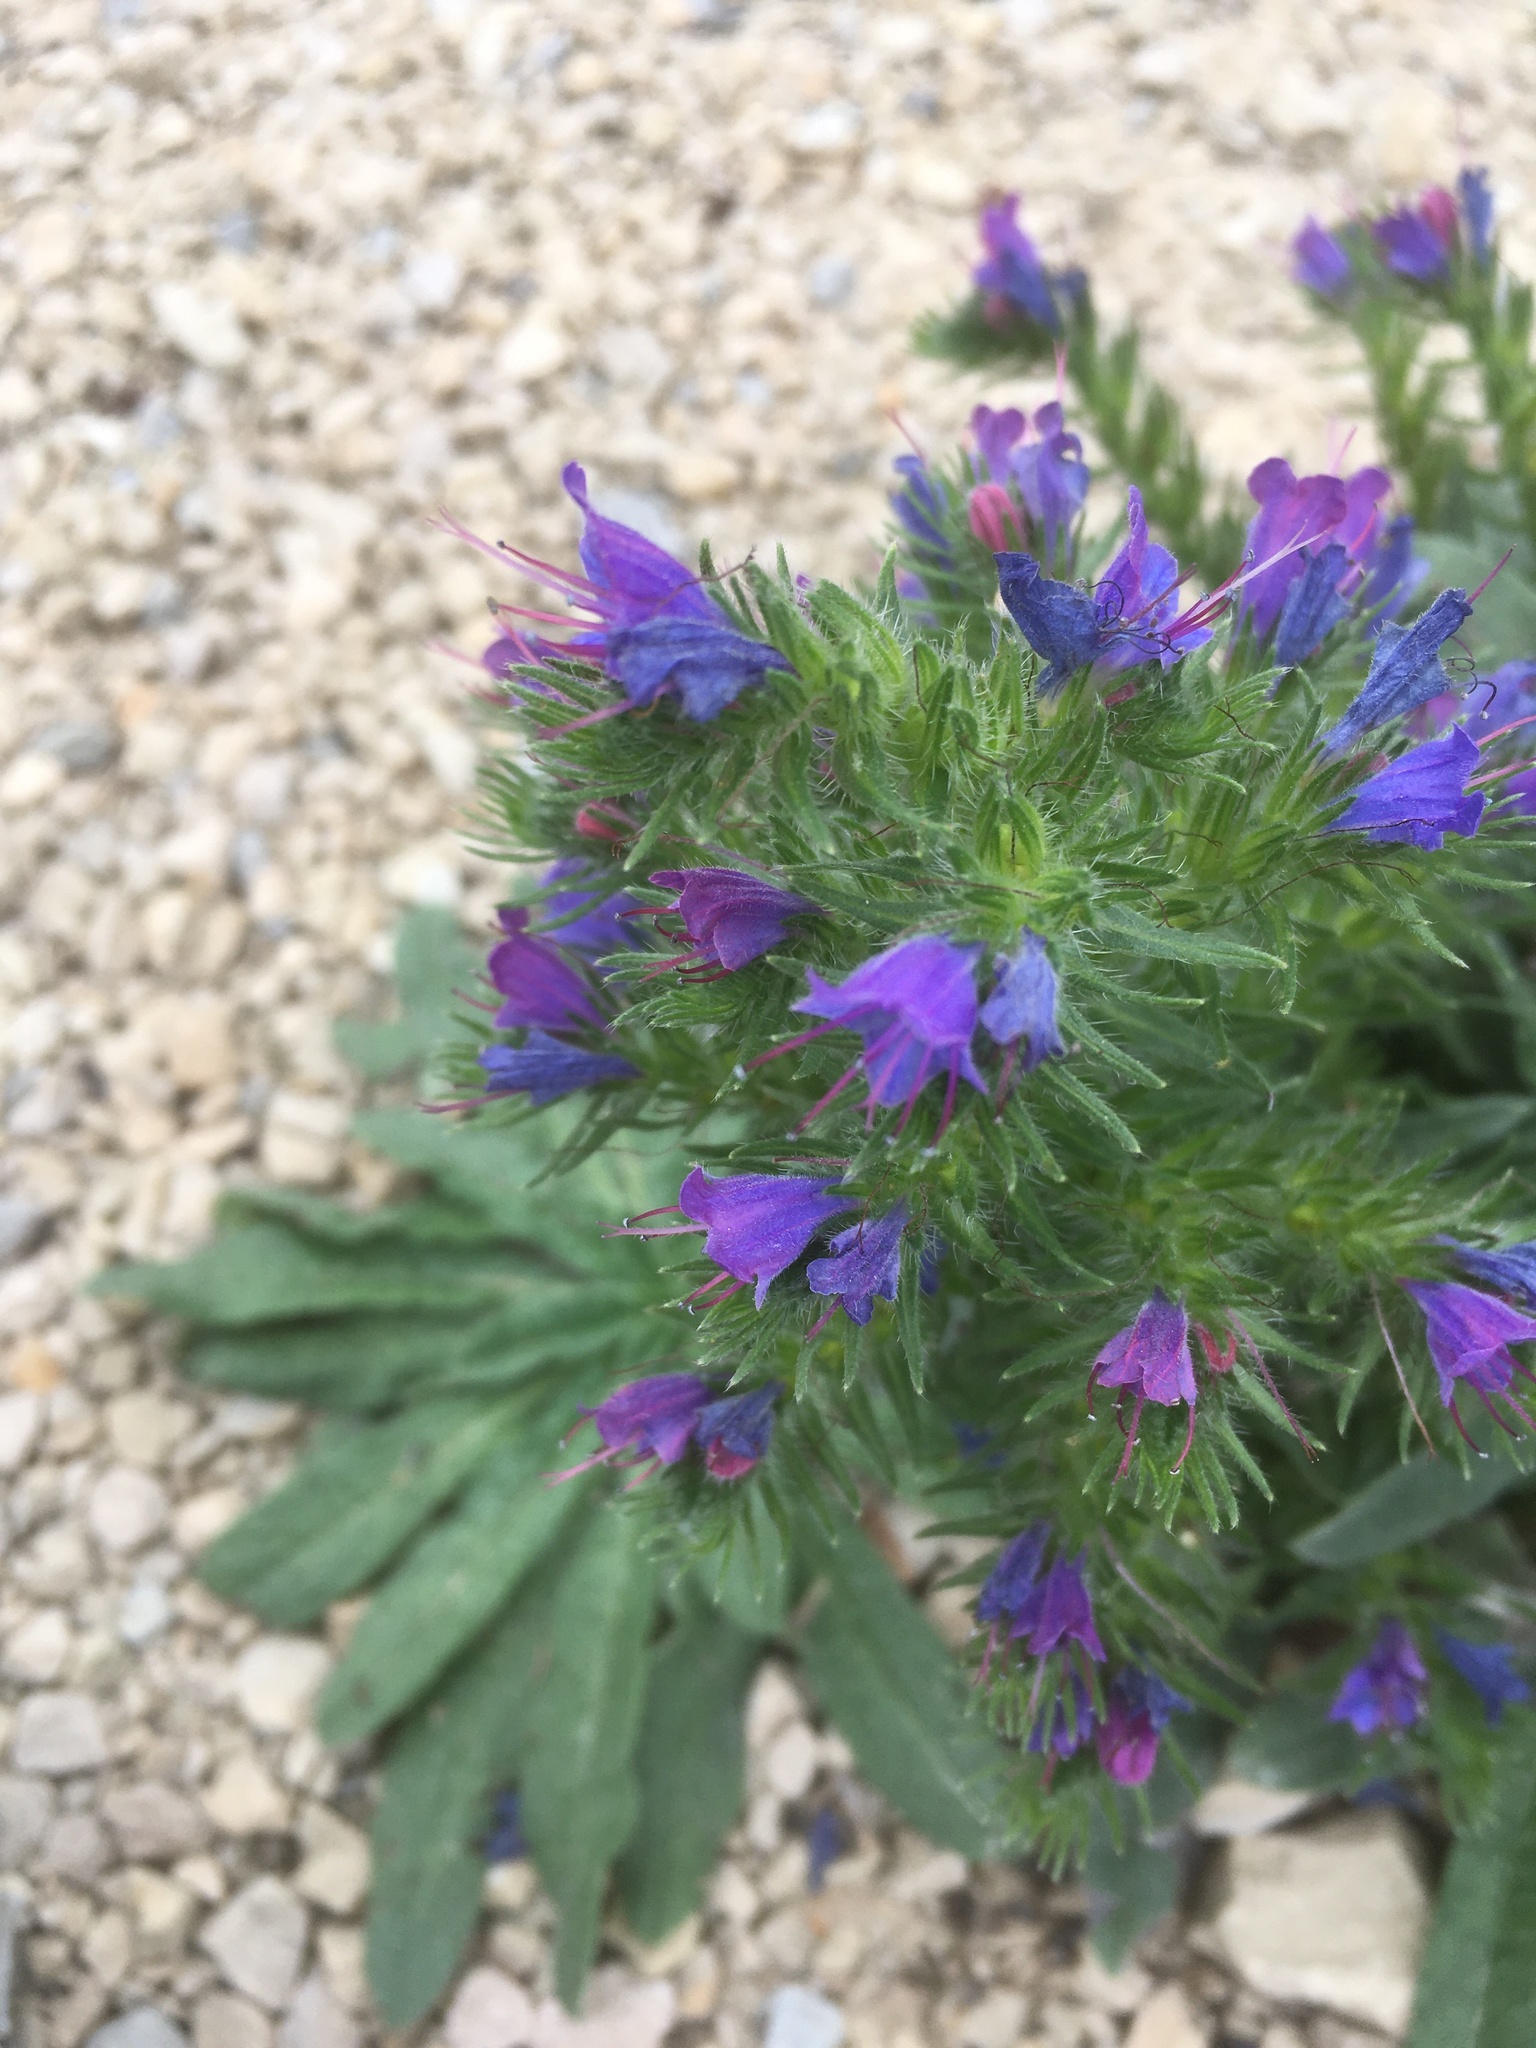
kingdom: Plantae
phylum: Tracheophyta
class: Magnoliopsida
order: Boraginales
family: Boraginaceae
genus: Echium
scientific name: Echium vulgare
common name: Common viper's bugloss
